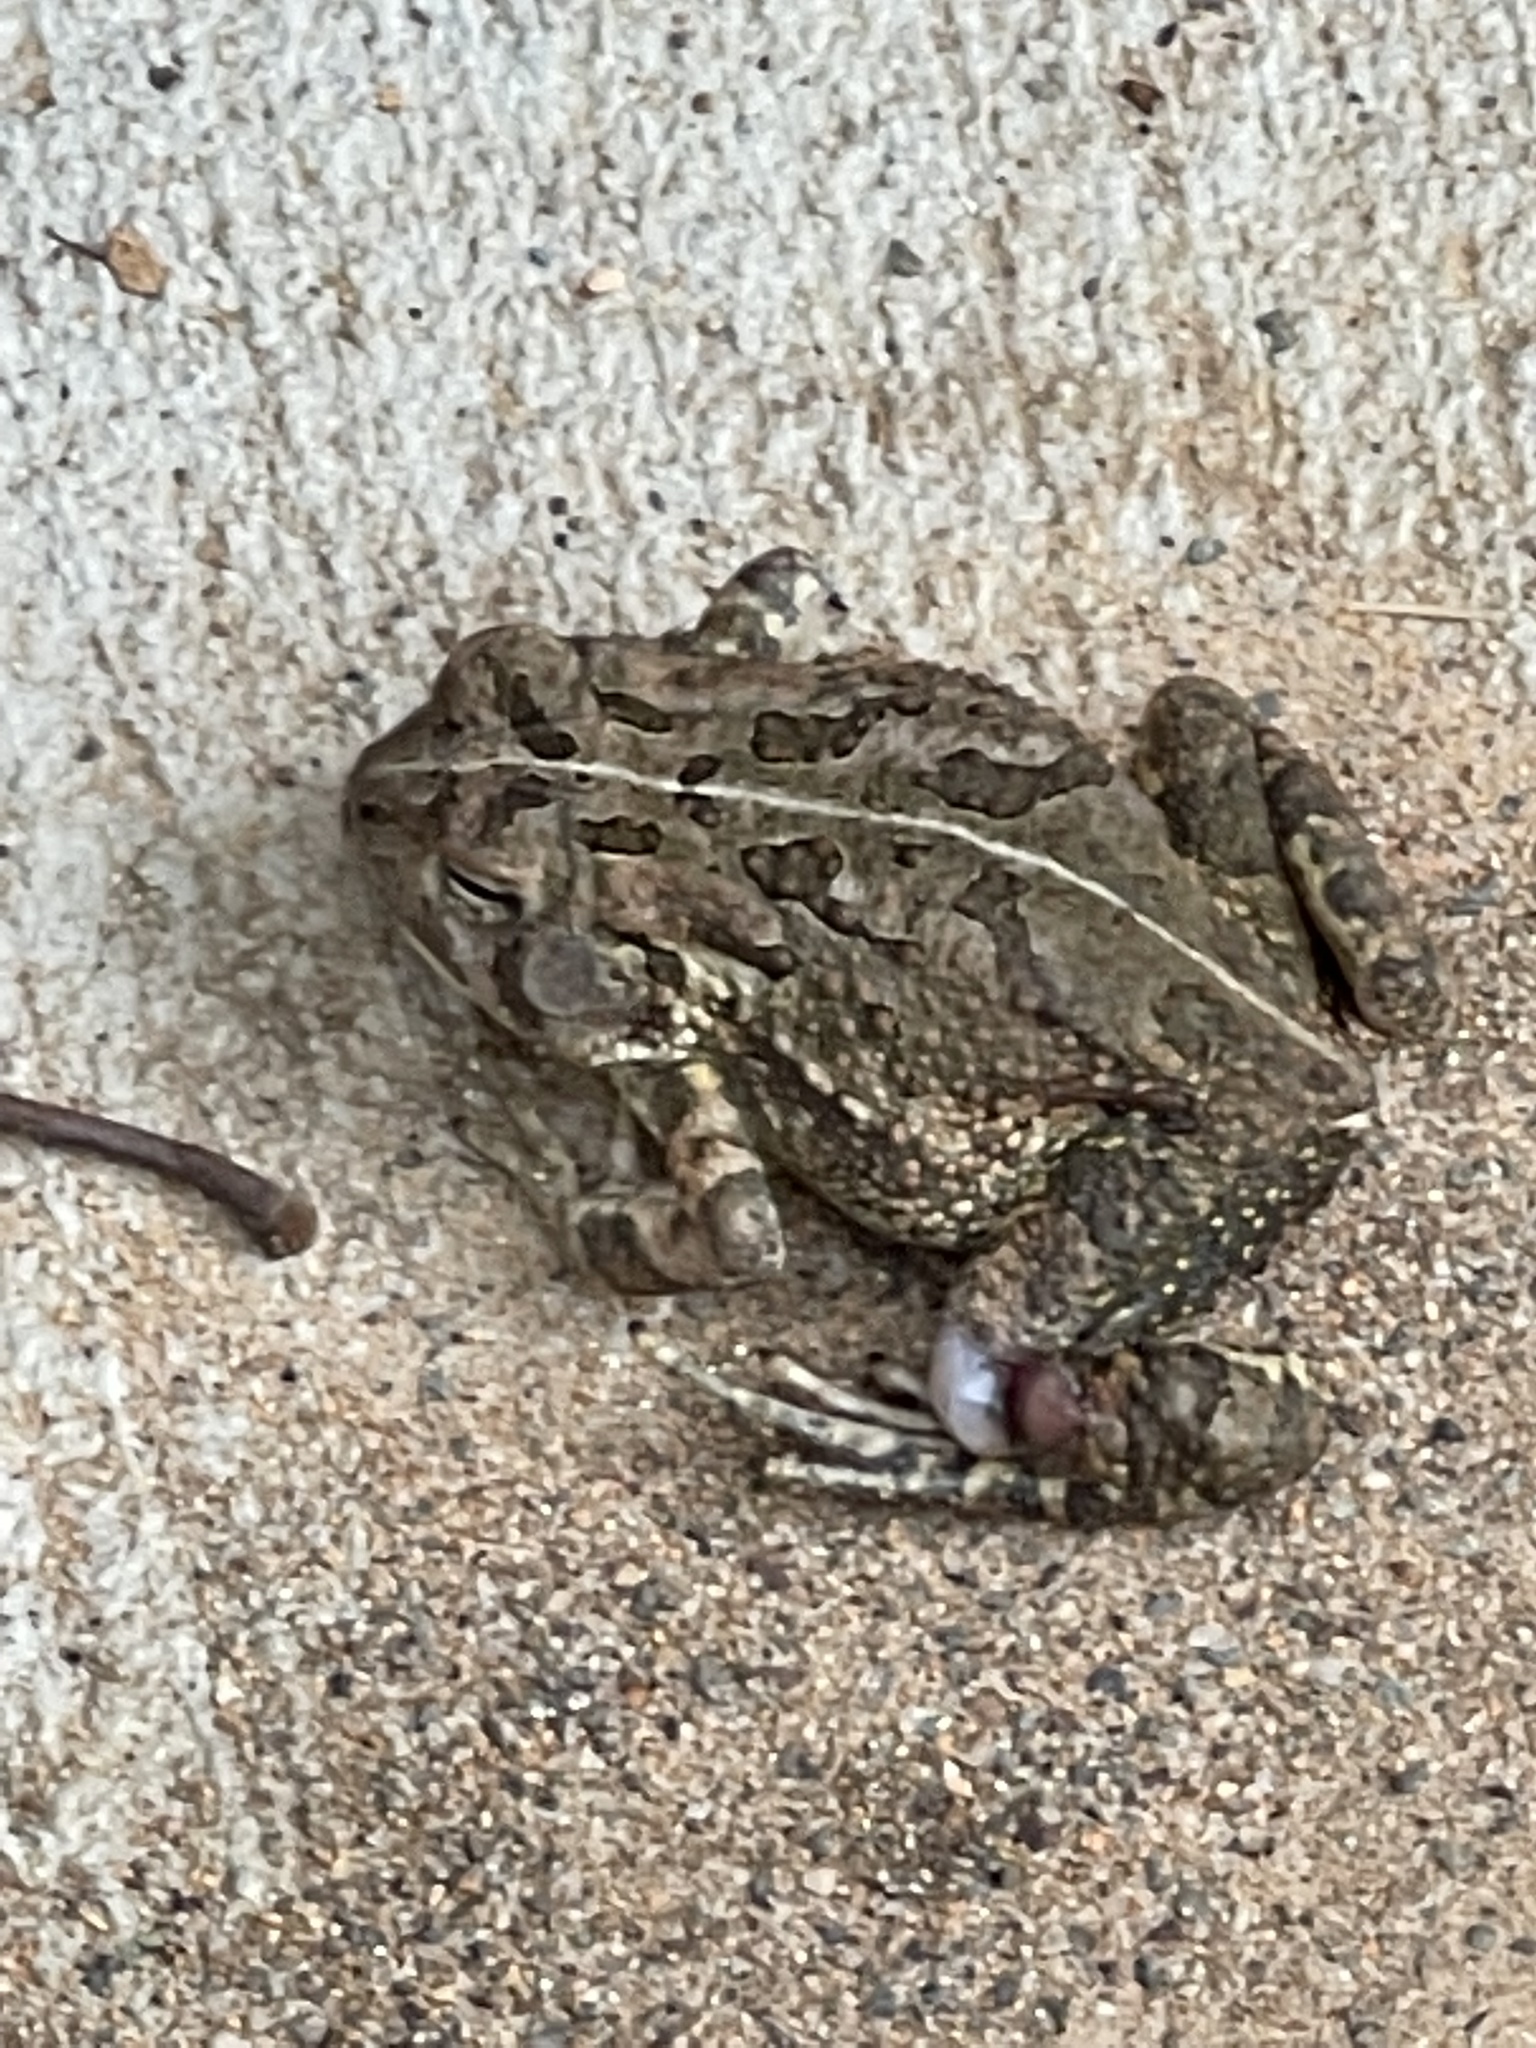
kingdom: Animalia
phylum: Chordata
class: Amphibia
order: Anura
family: Bufonidae
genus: Anaxyrus
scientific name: Anaxyrus fowleri
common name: Fowler's toad
